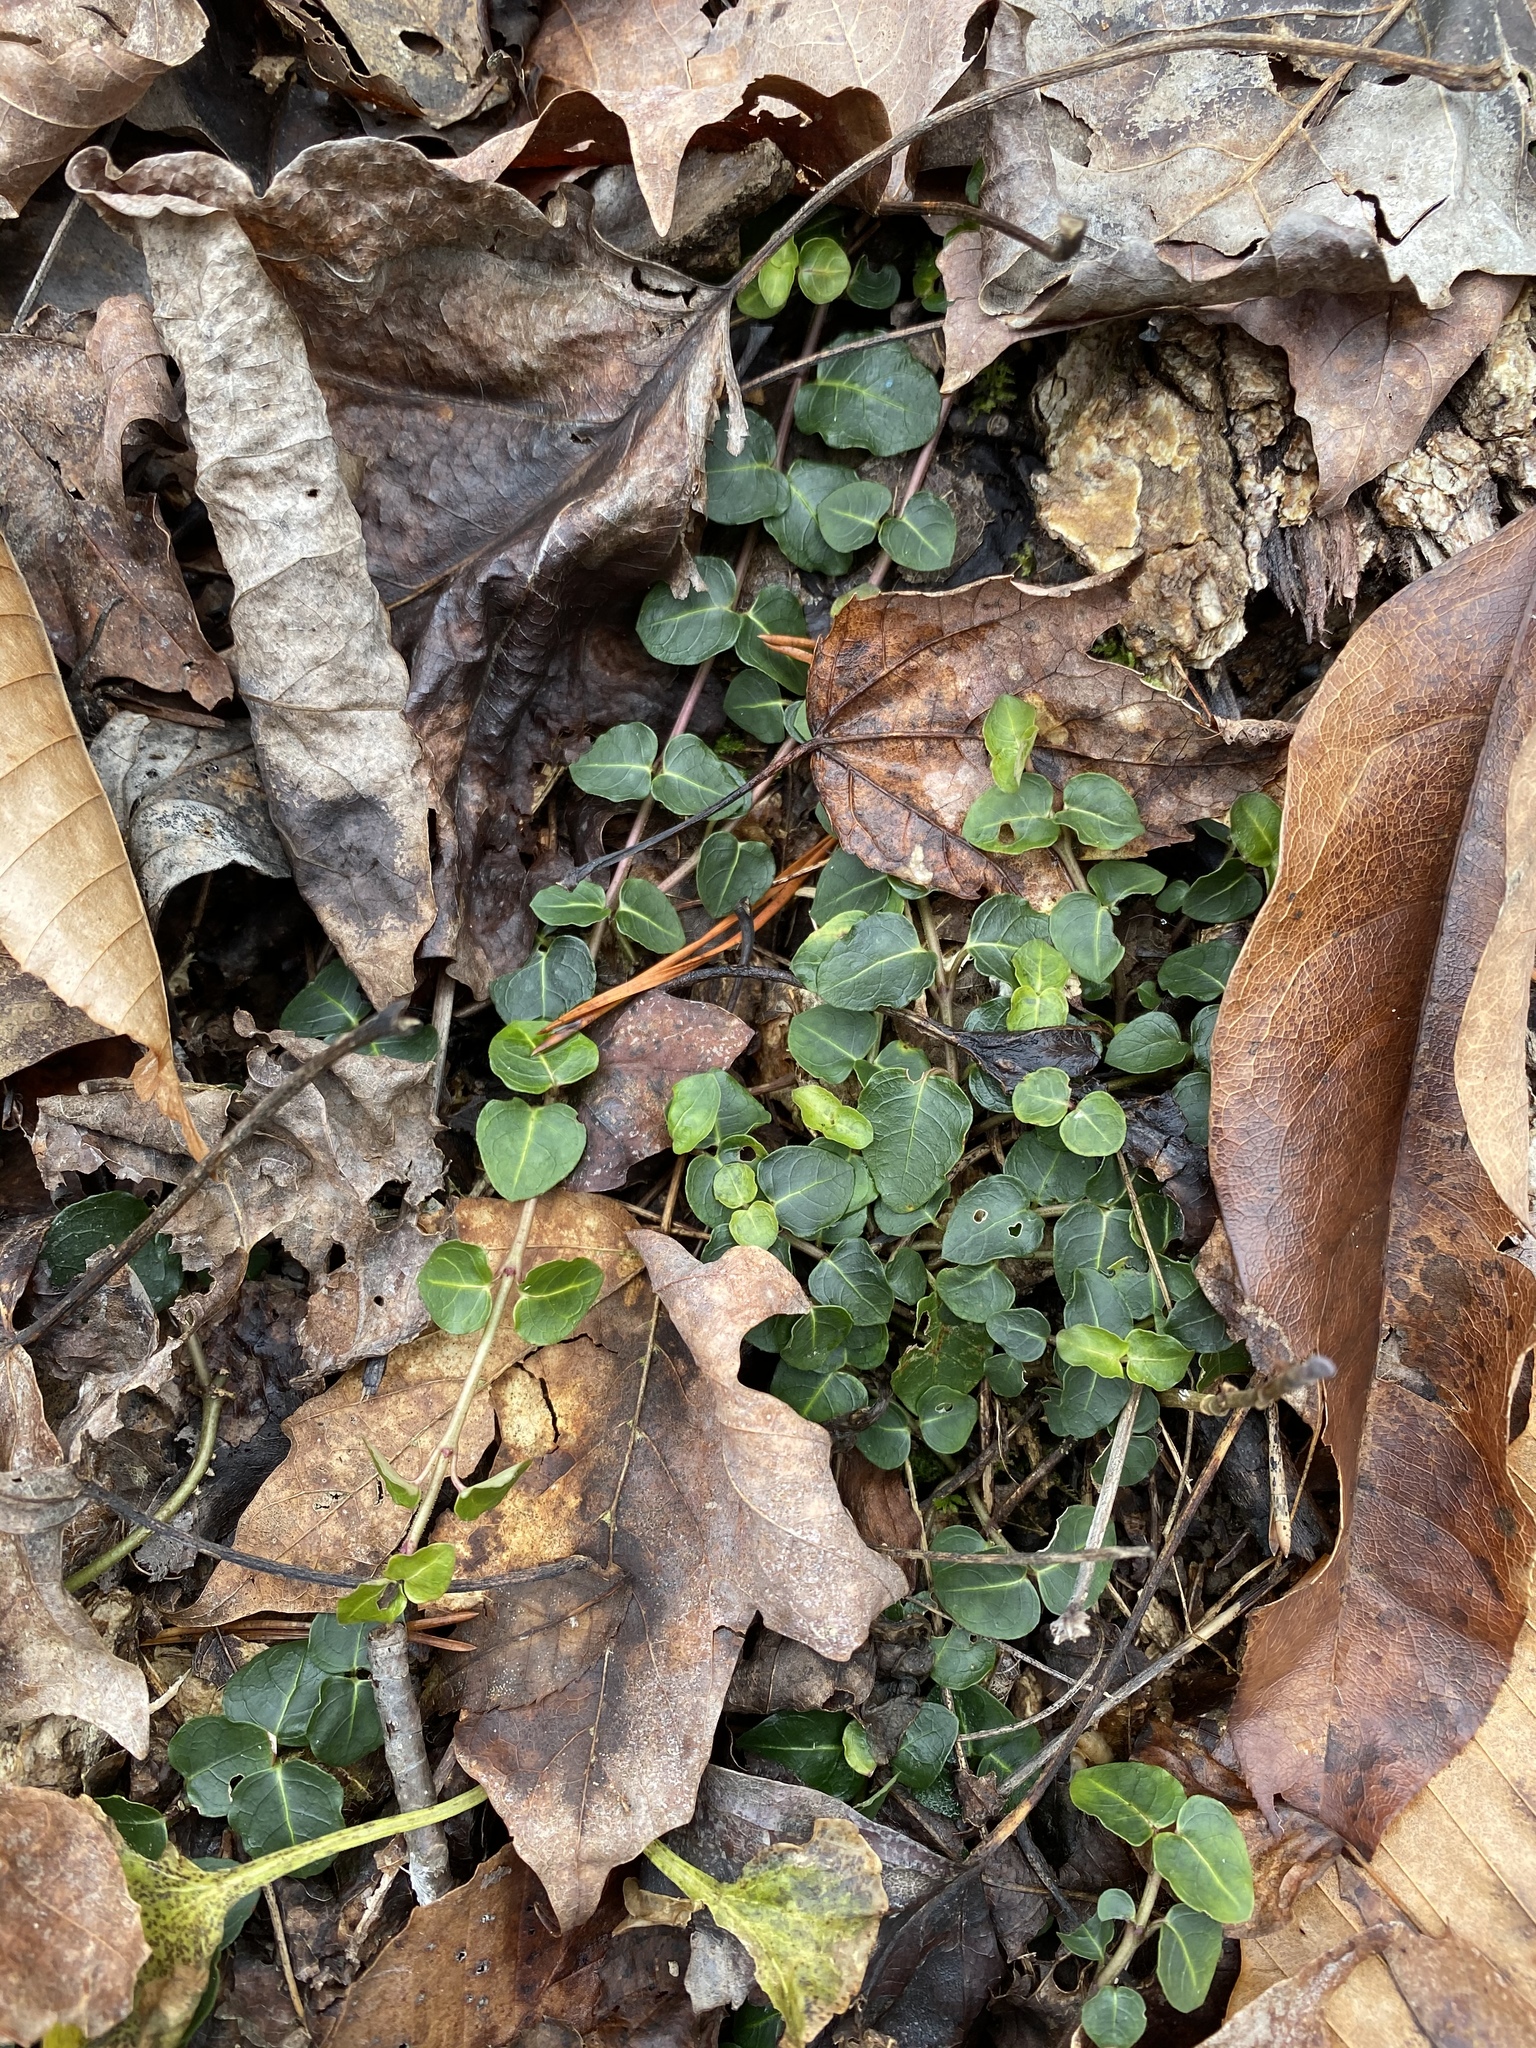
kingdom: Plantae
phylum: Tracheophyta
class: Magnoliopsida
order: Gentianales
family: Rubiaceae
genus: Mitchella
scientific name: Mitchella repens
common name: Partridge-berry
